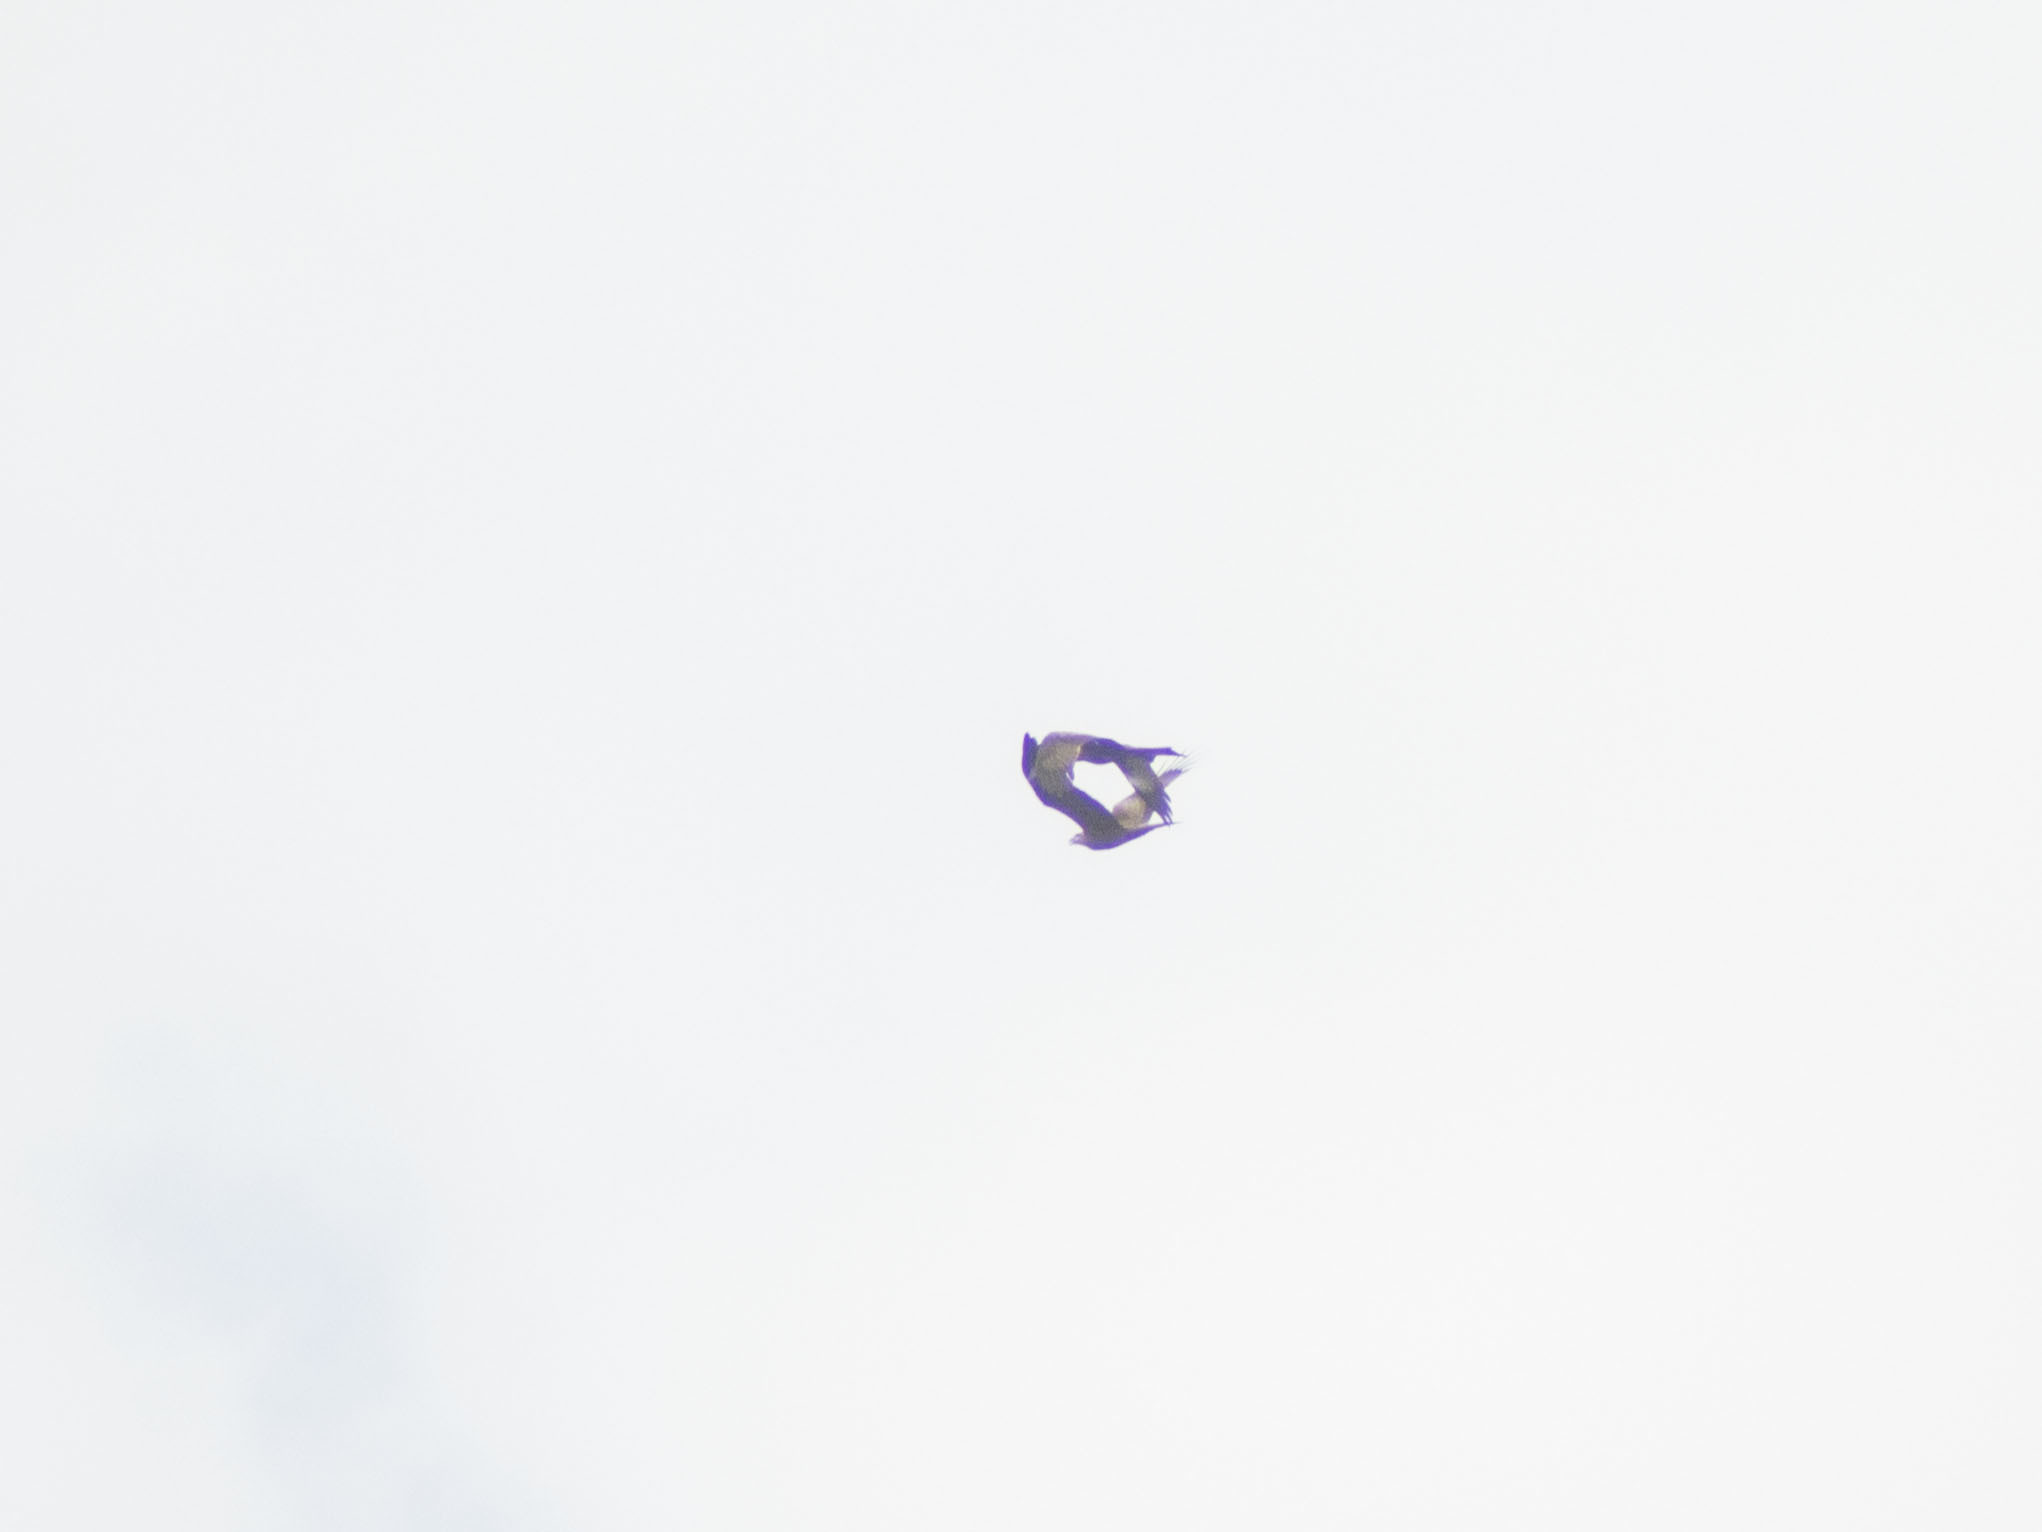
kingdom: Animalia
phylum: Chordata
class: Aves
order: Accipitriformes
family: Accipitridae
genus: Milvus
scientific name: Milvus migrans
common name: Black kite
